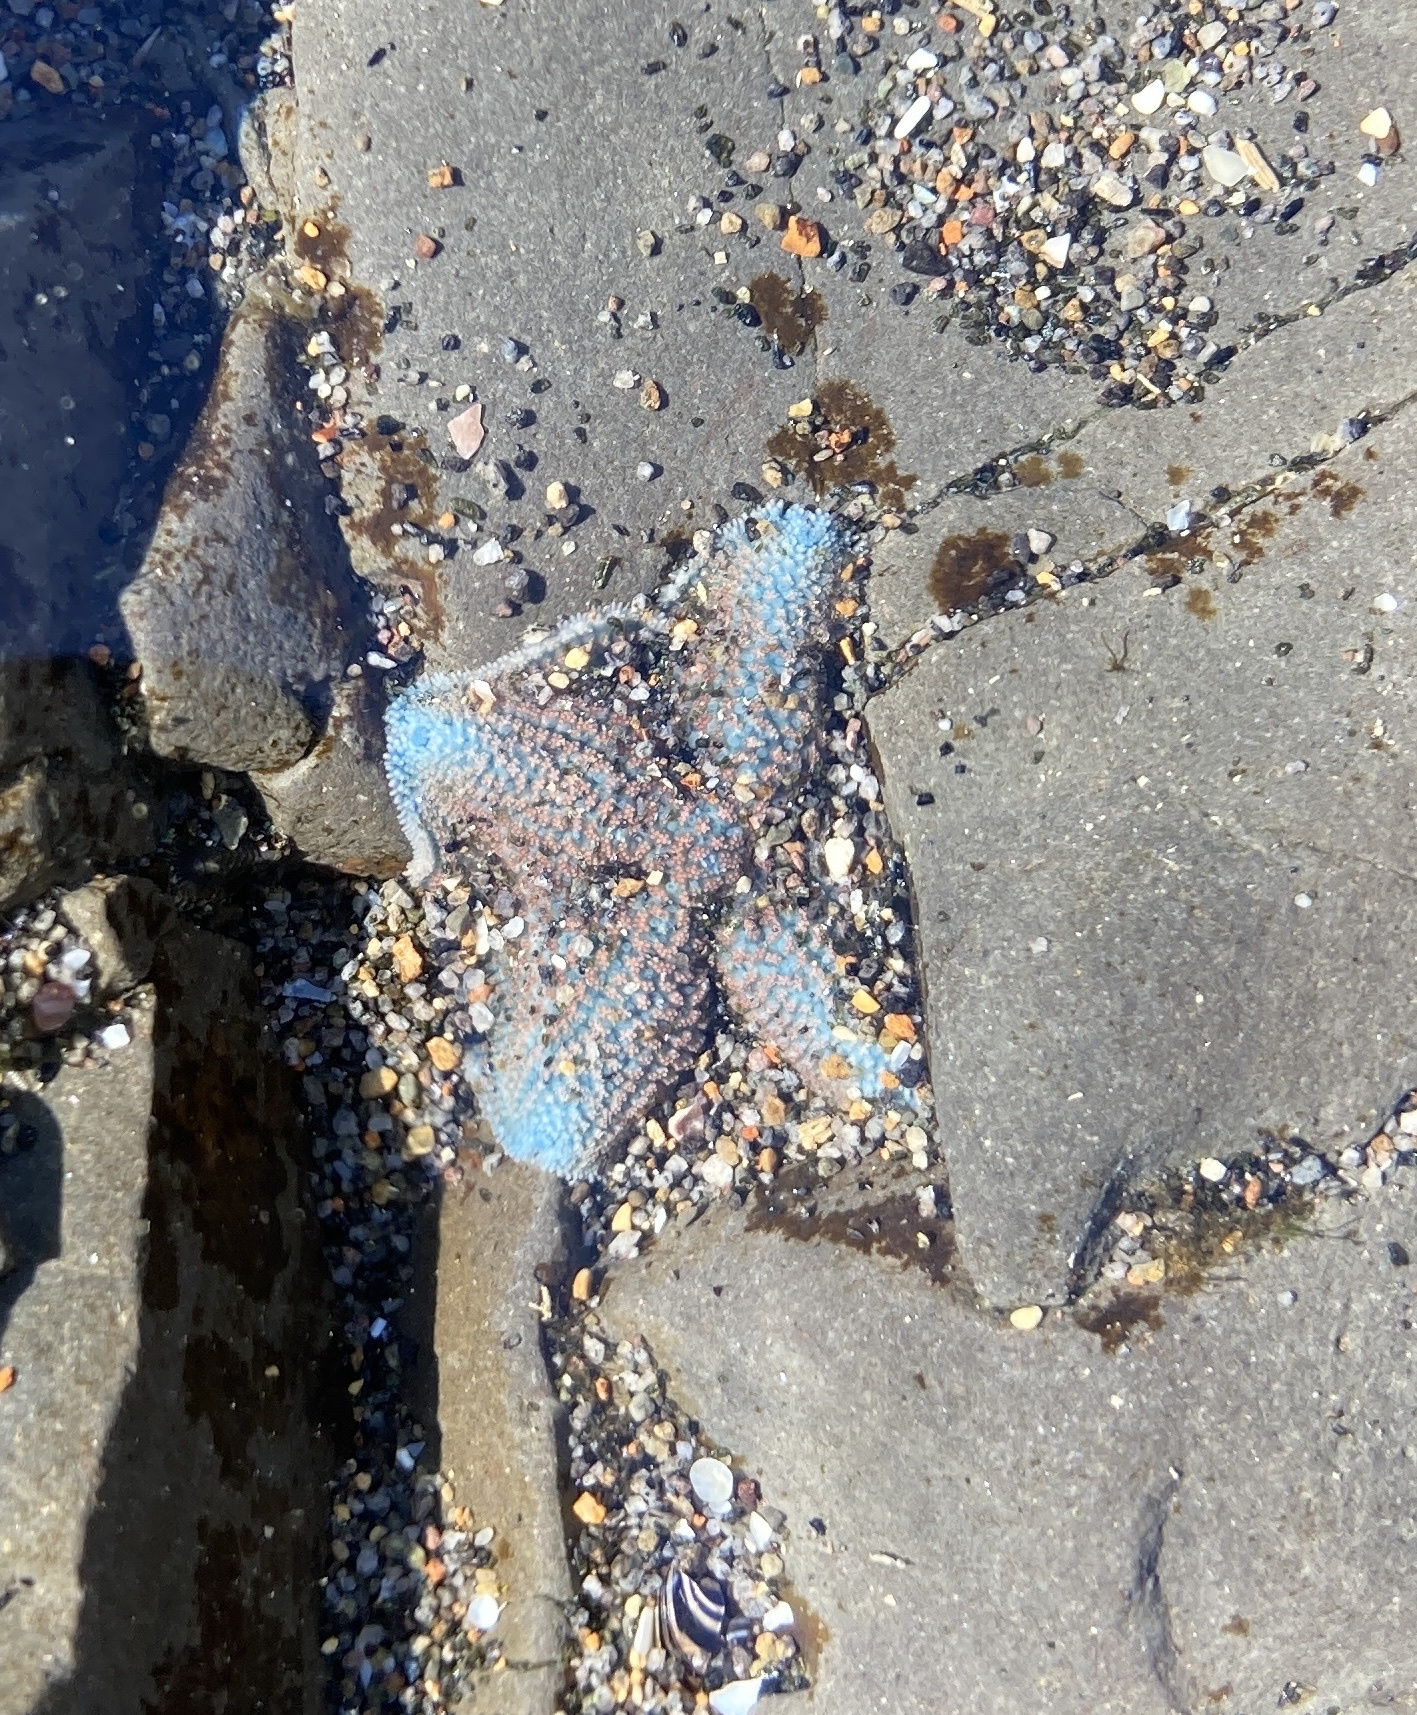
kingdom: Animalia
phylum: Echinodermata
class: Asteroidea
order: Valvatida
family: Asterinidae
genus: Patiriella
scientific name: Patiriella regularis
